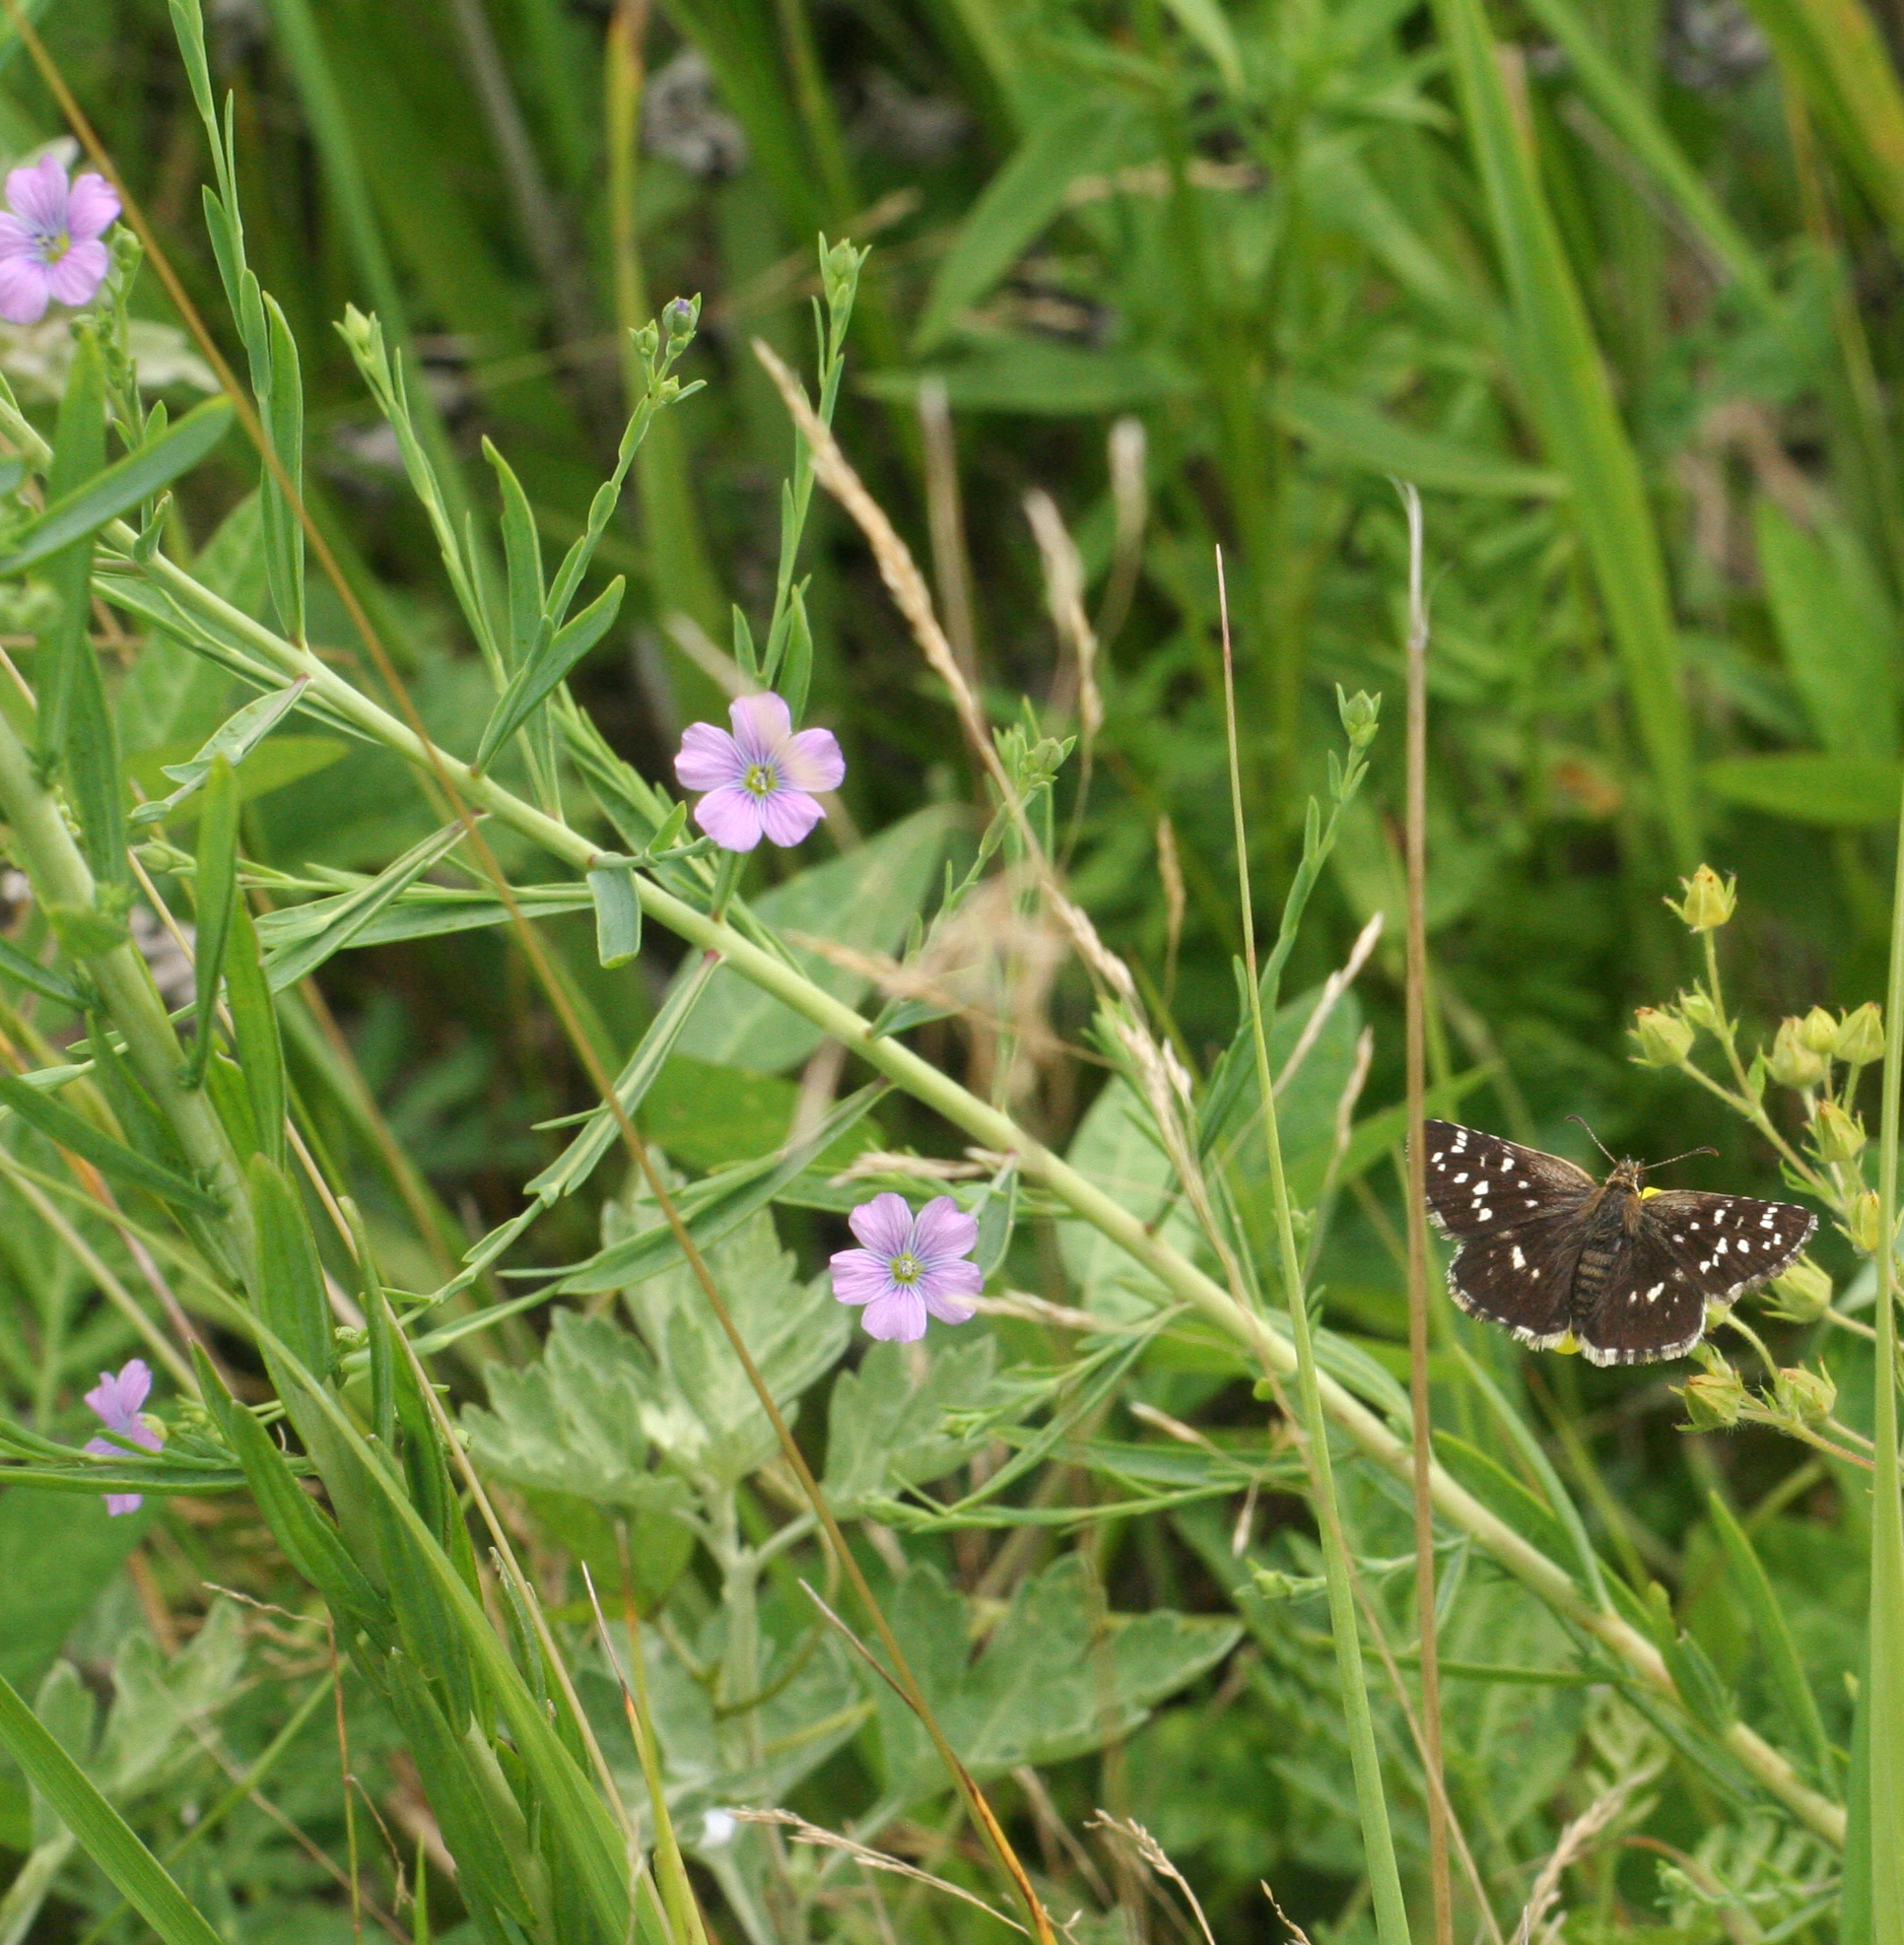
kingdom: Plantae
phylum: Tracheophyta
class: Magnoliopsida
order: Malpighiales
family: Linaceae
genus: Linum
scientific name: Linum stelleroides
